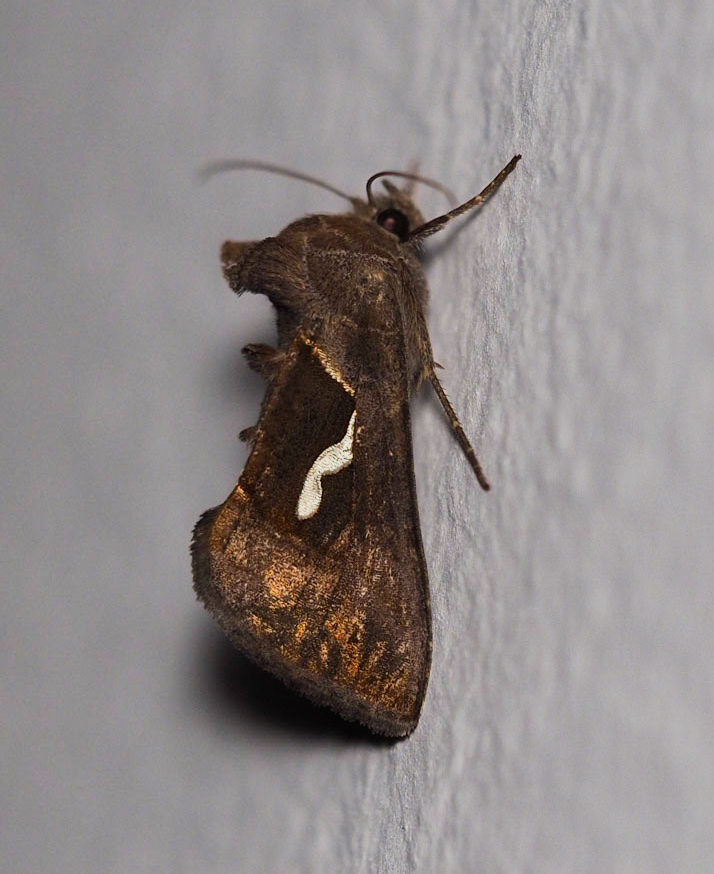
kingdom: Animalia
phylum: Arthropoda
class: Insecta
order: Lepidoptera
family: Noctuidae
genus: Macdunnoughia
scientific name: Macdunnoughia confusa
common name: Dewick's plusia
